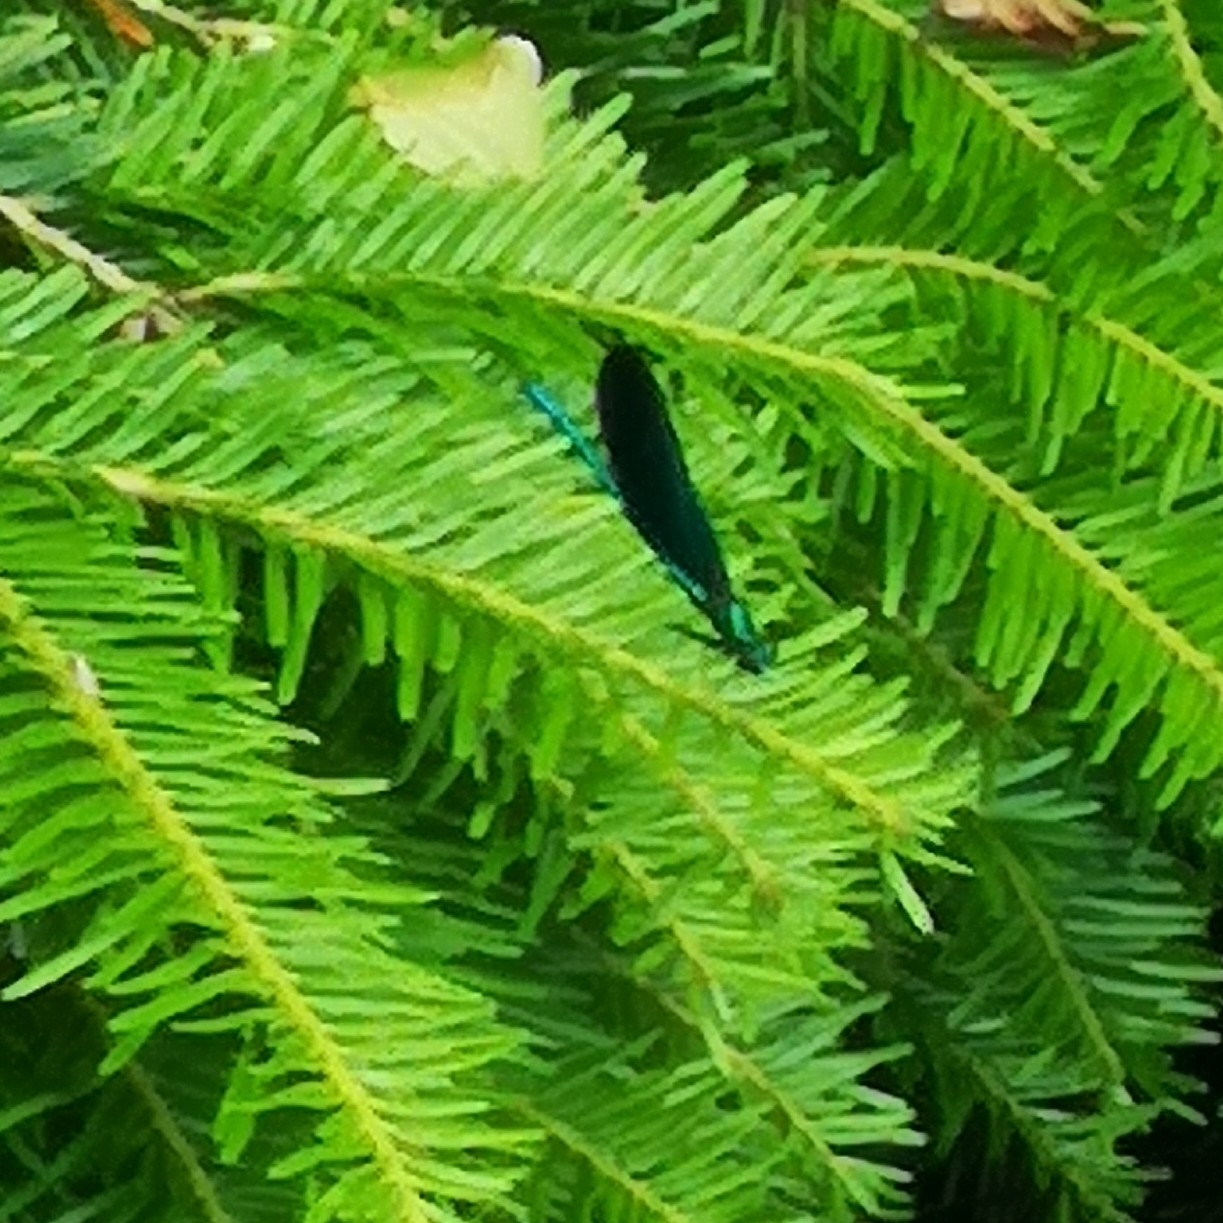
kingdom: Animalia
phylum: Arthropoda
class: Insecta
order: Odonata
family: Calopterygidae
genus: Calopteryx
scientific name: Calopteryx virgo
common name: Beautiful demoiselle
